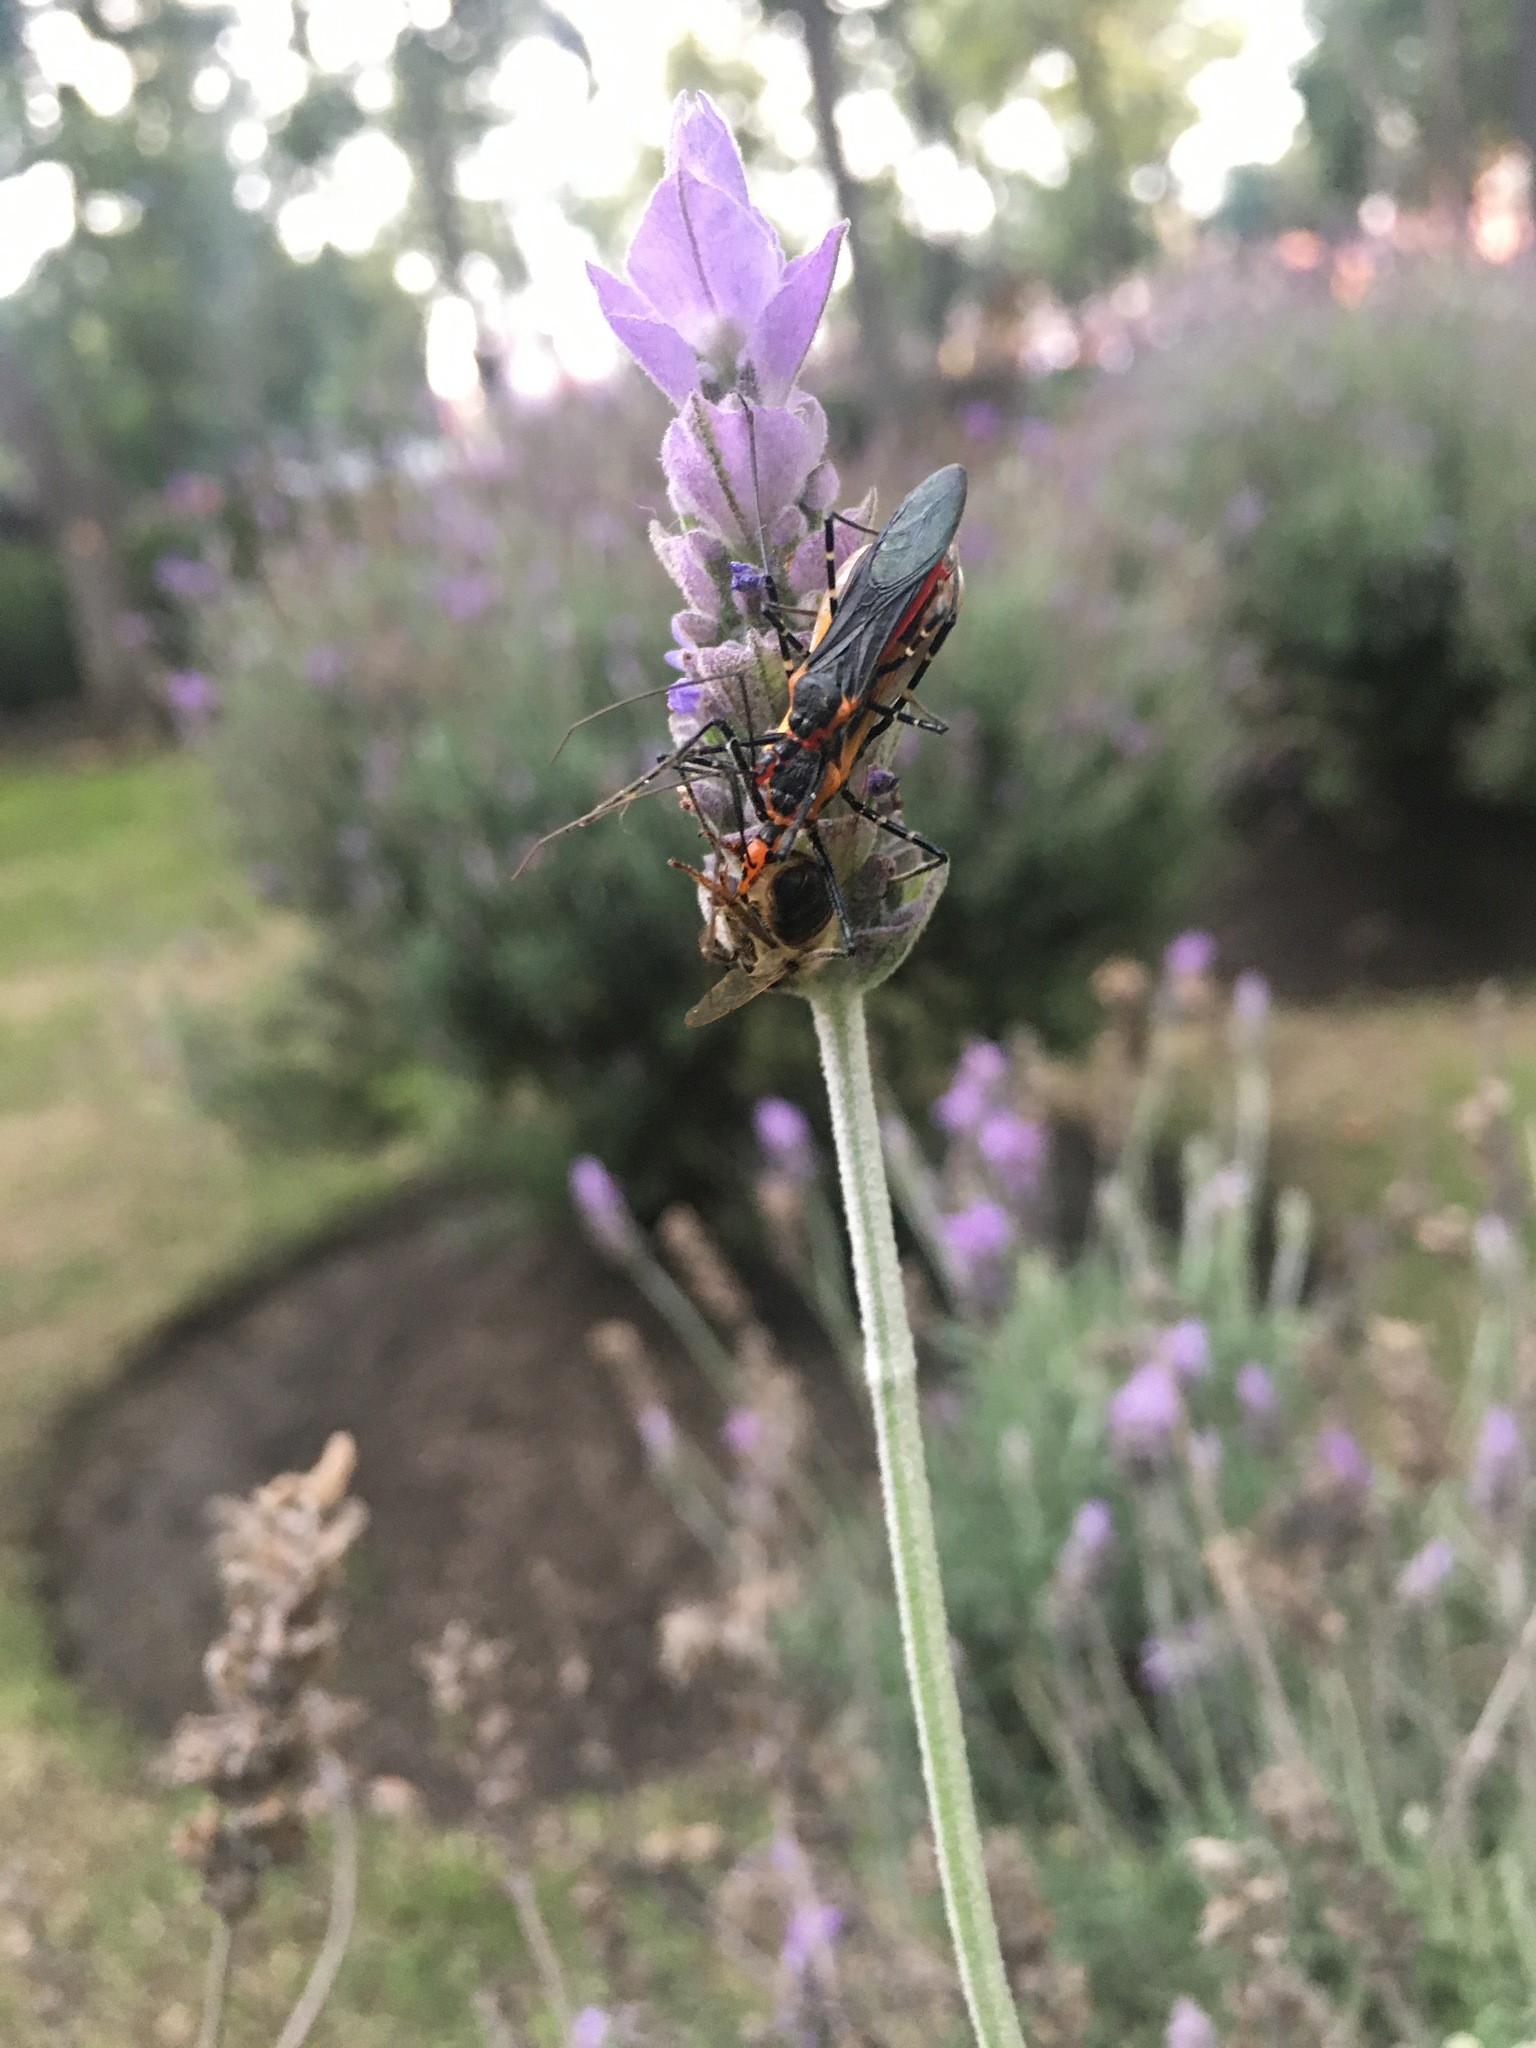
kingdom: Animalia
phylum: Arthropoda
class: Insecta
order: Hemiptera
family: Reduviidae
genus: Zelus
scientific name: Zelus longipes
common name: Milkweed assassin bug
